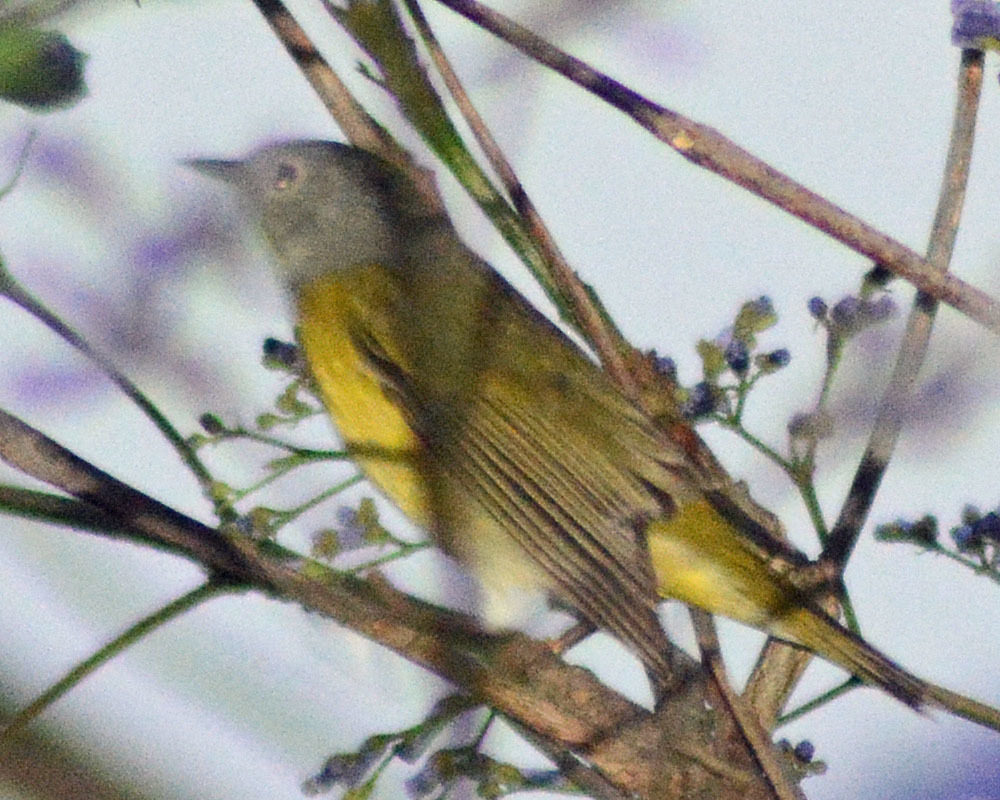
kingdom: Animalia
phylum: Chordata
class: Aves
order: Passeriformes
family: Parulidae
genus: Leiothlypis
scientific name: Leiothlypis ruficapilla
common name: Nashville warbler
